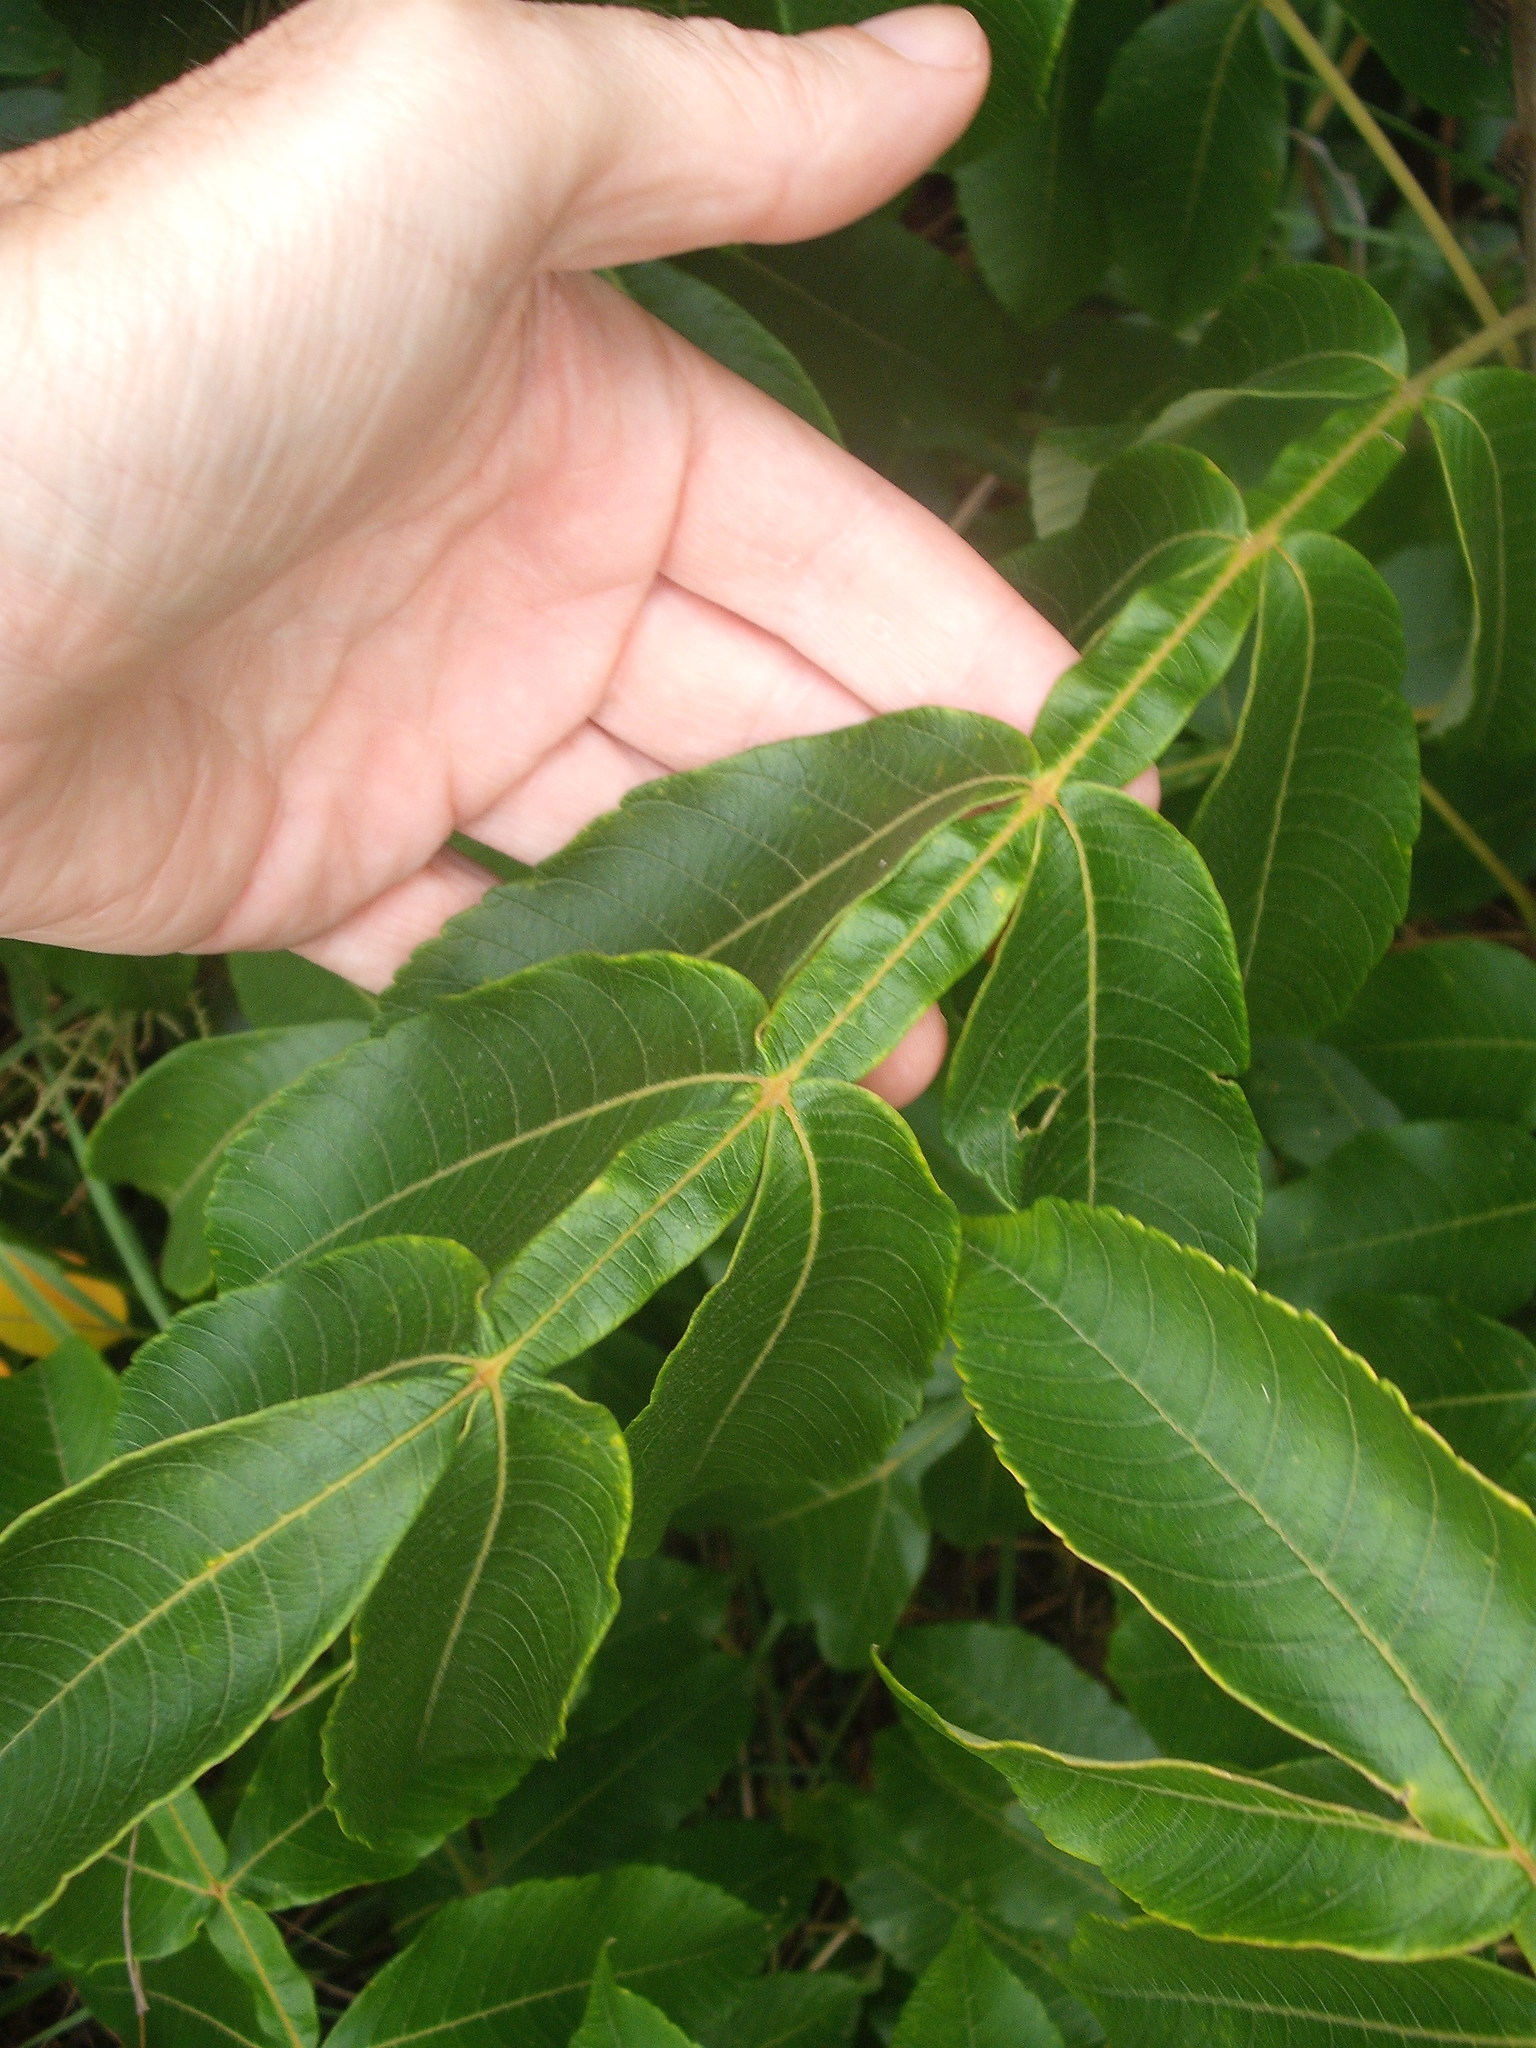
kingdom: Plantae
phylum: Tracheophyta
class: Magnoliopsida
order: Sapindales
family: Anacardiaceae
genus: Rhus
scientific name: Rhus chinensis
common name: Chinese gall
